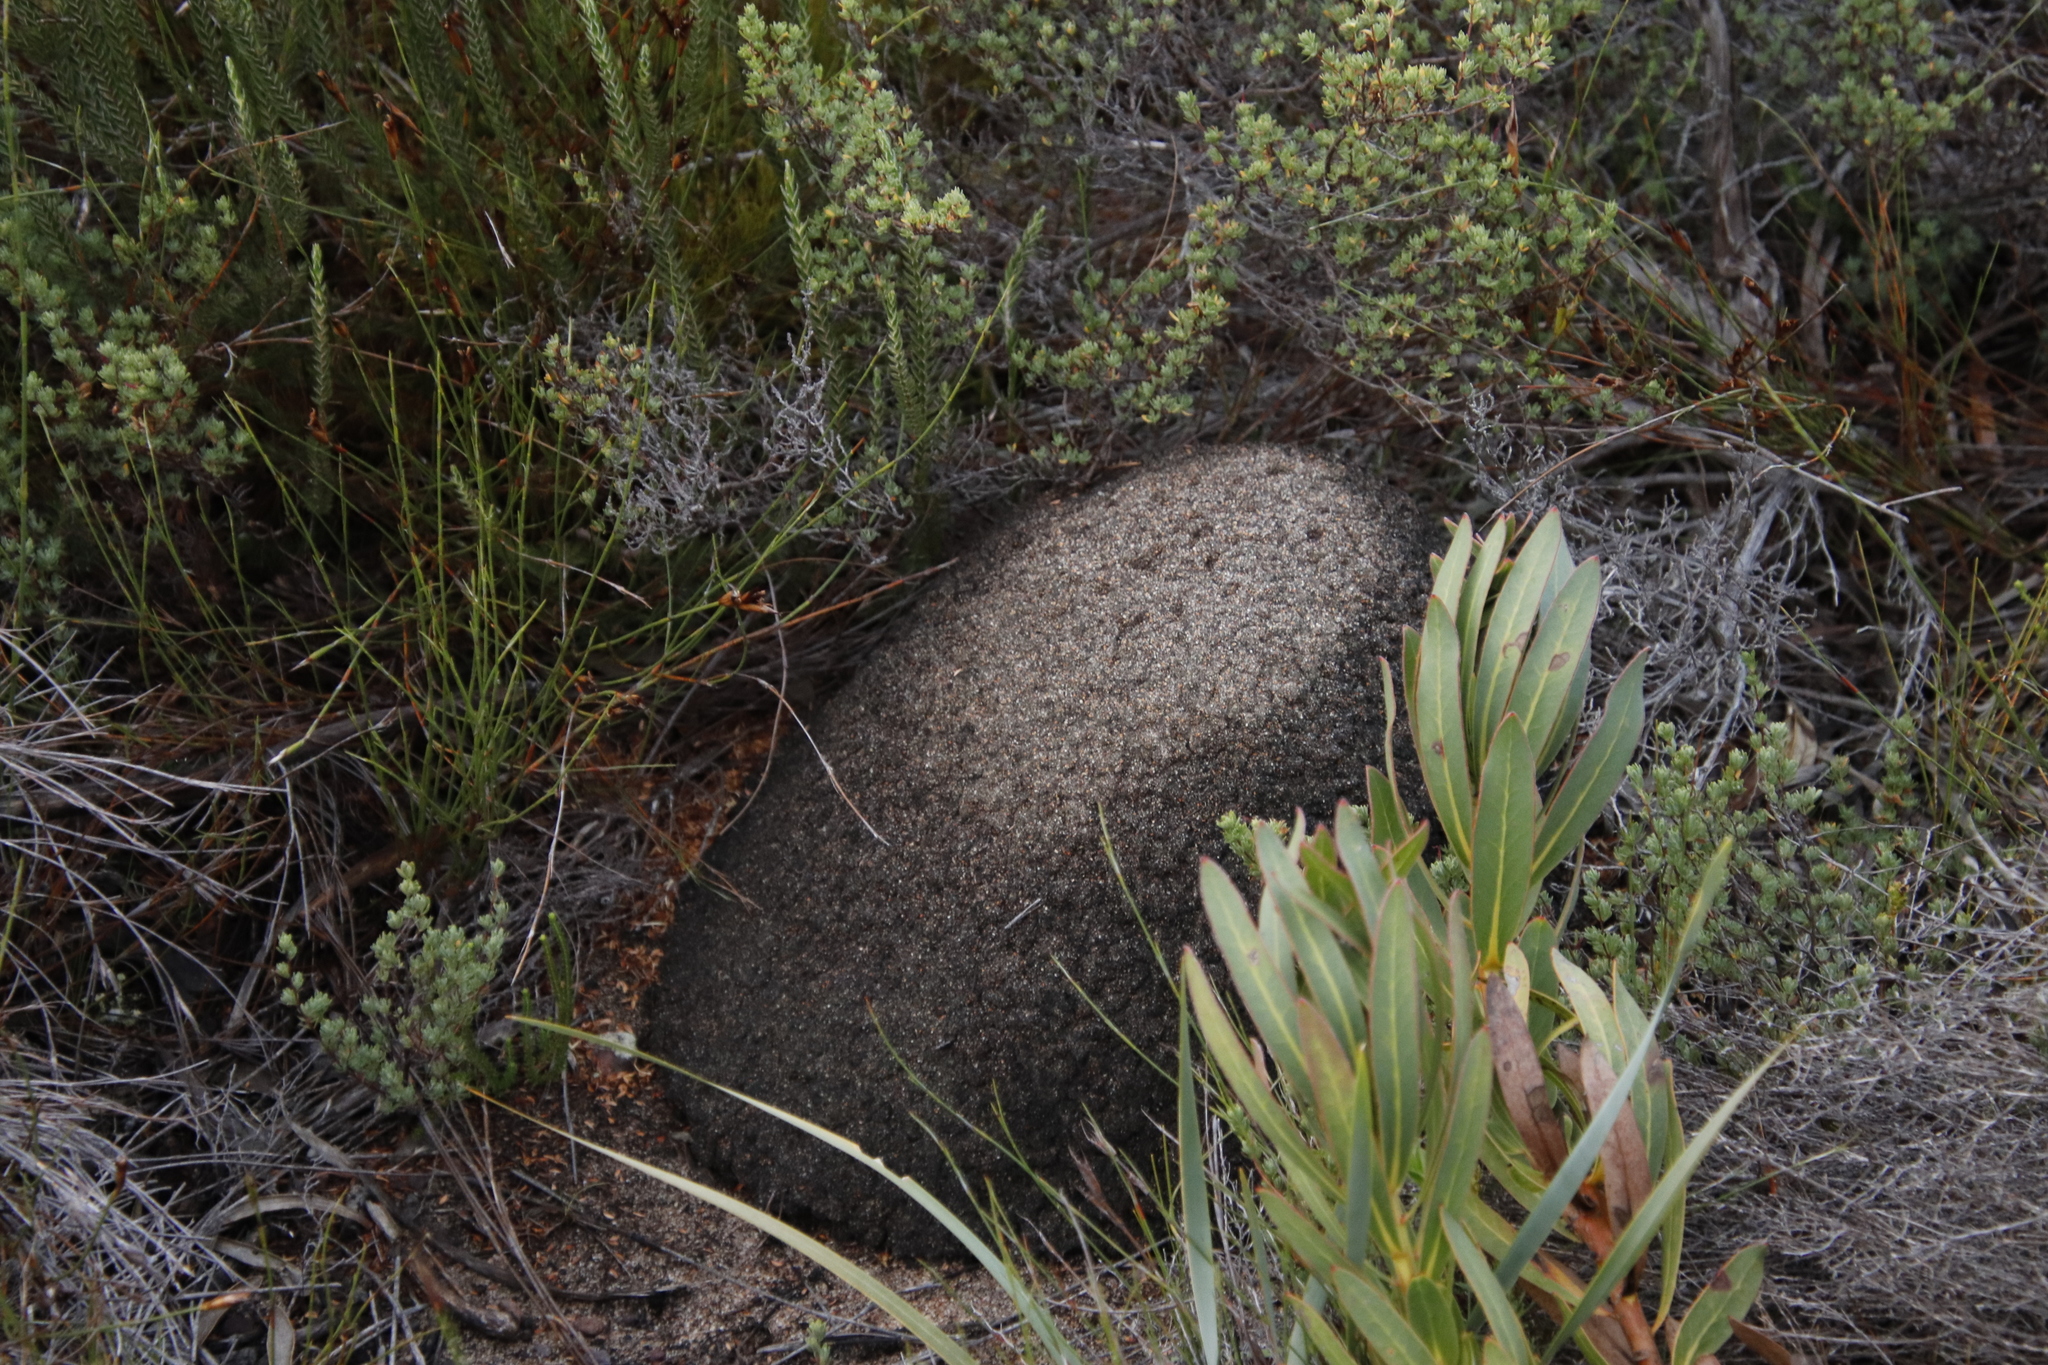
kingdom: Animalia
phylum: Arthropoda
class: Insecta
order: Blattodea
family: Termitidae
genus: Amitermes
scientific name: Amitermes hastatus
